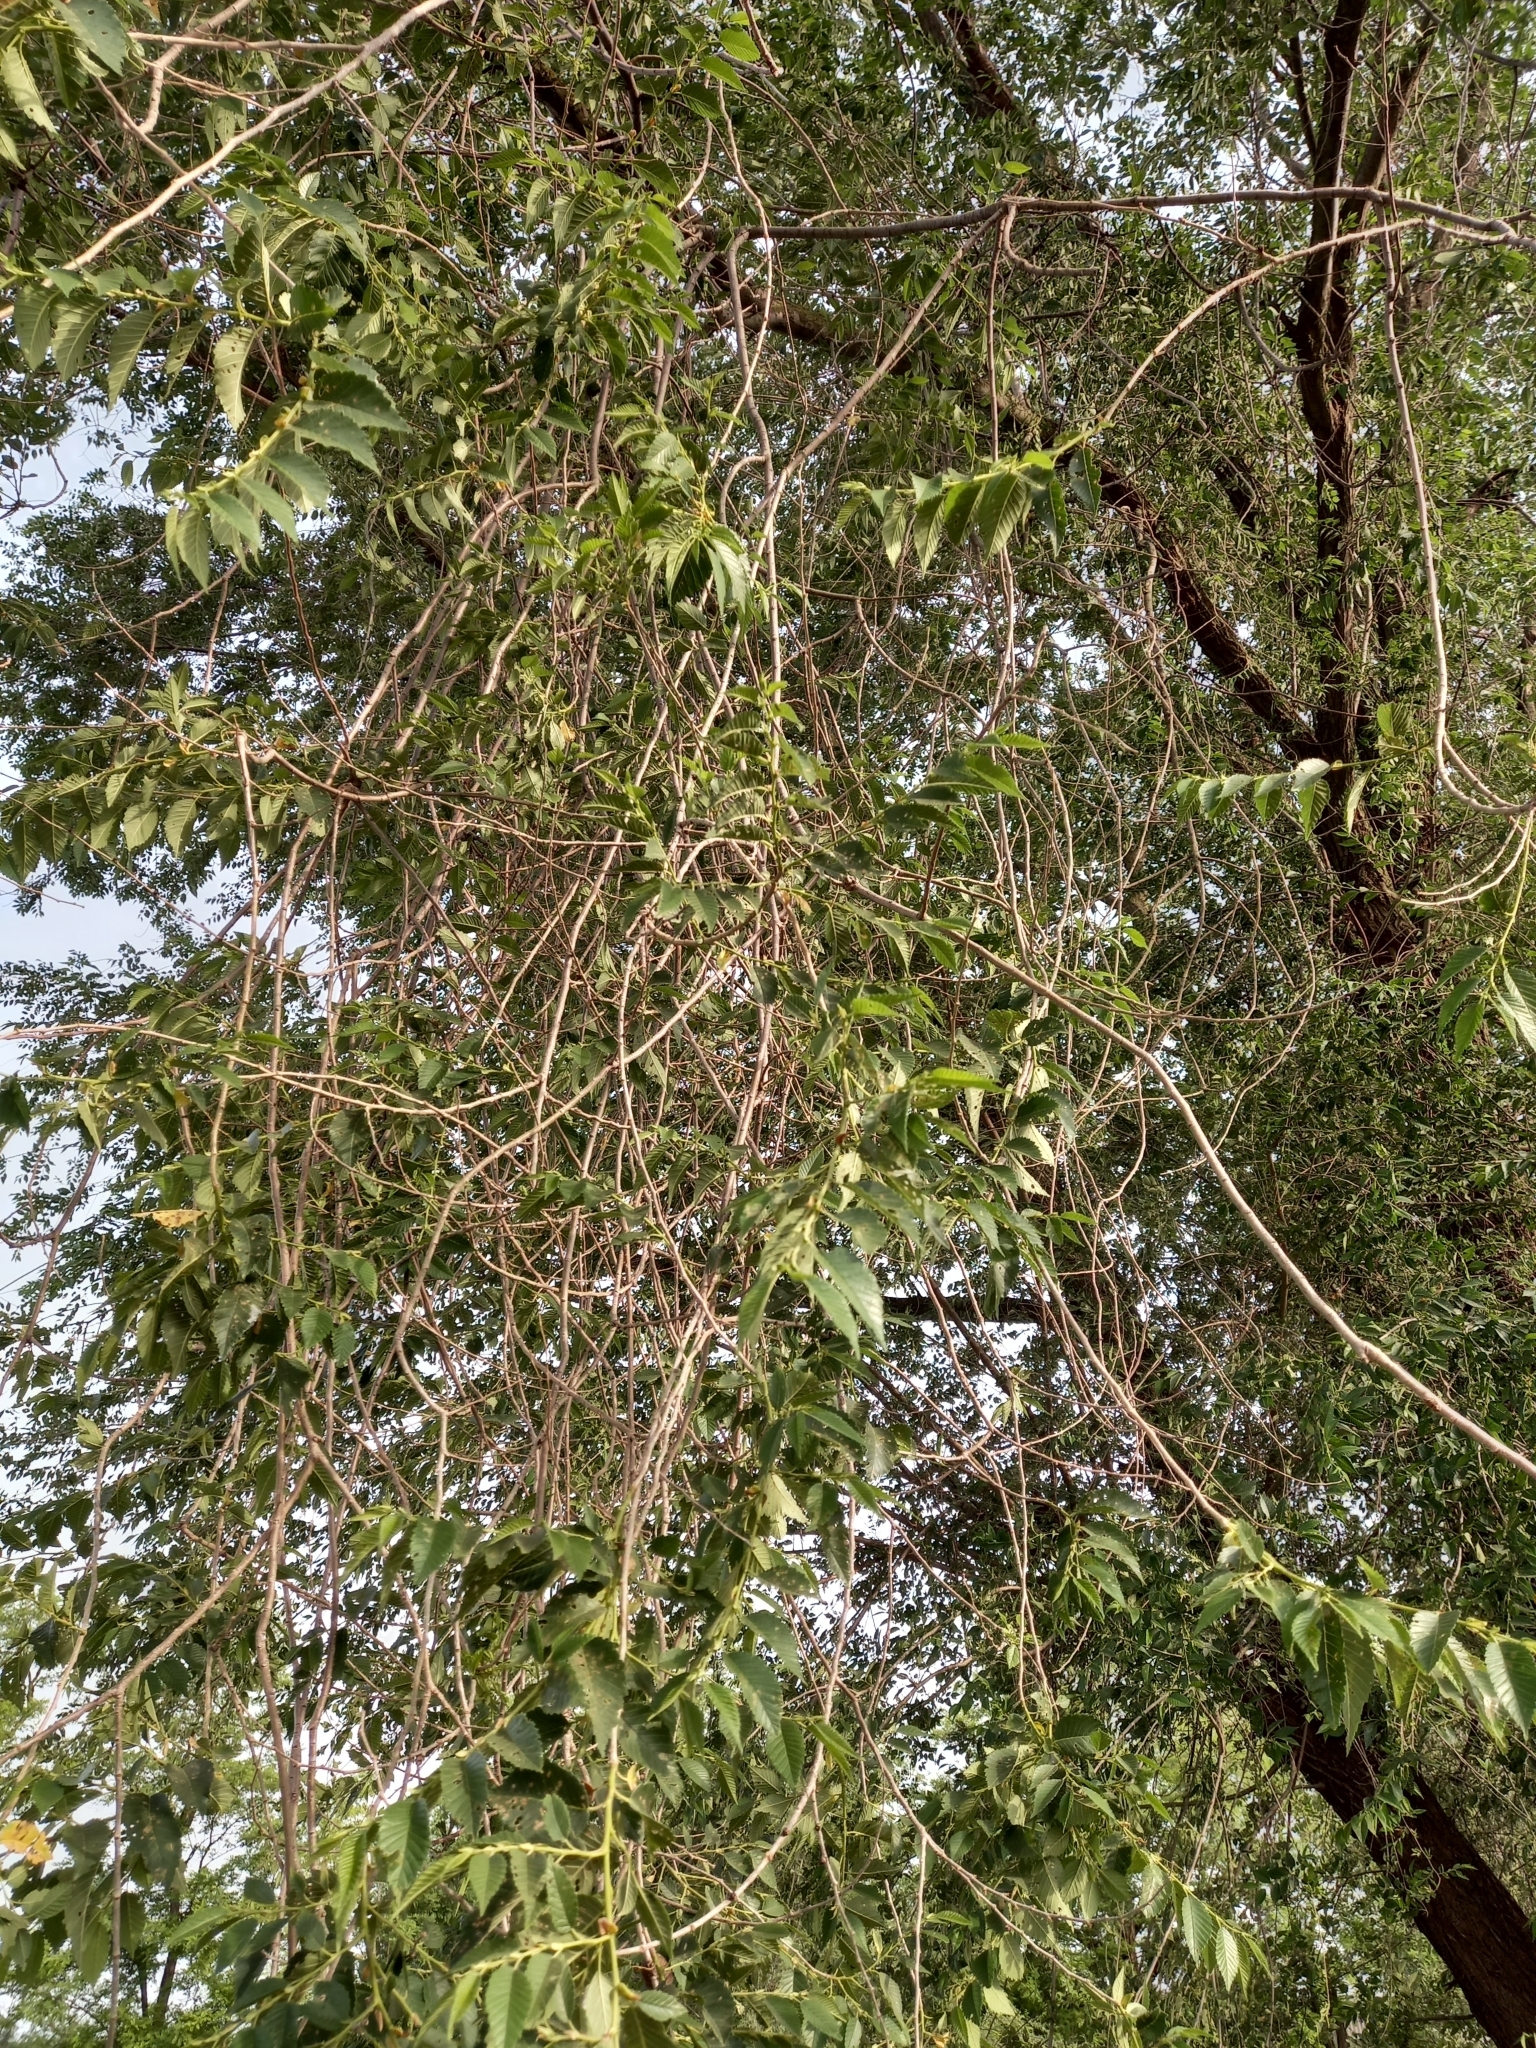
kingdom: Plantae
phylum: Tracheophyta
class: Magnoliopsida
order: Rosales
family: Ulmaceae
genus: Ulmus
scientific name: Ulmus pumila
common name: Siberian elm
